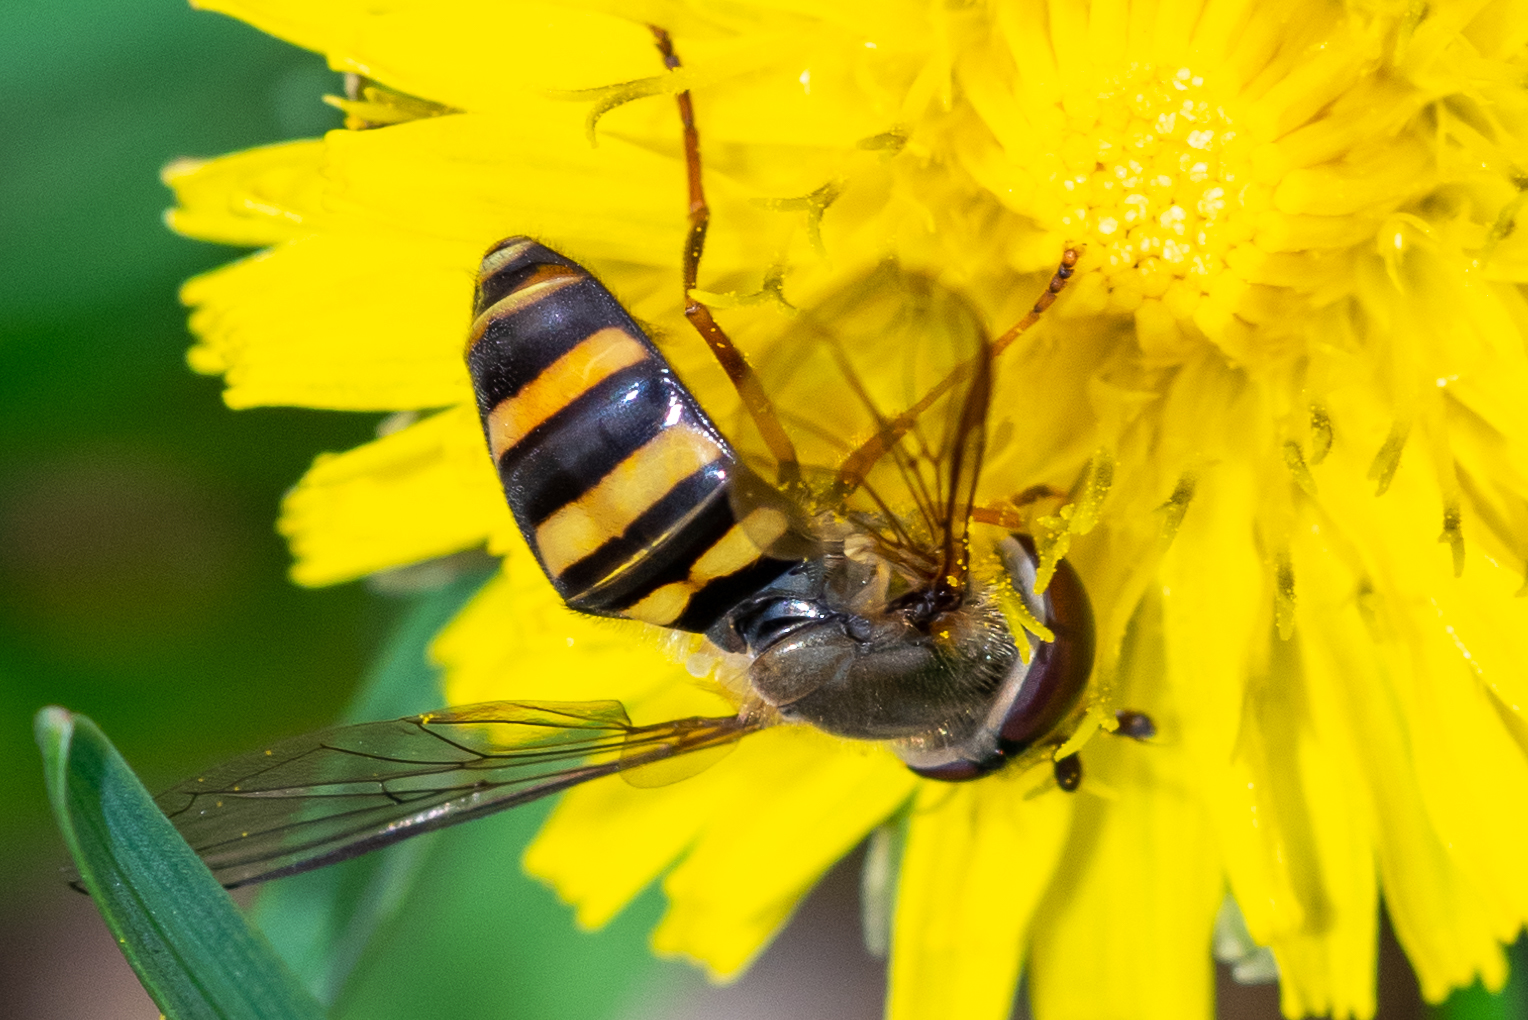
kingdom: Animalia
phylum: Arthropoda
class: Insecta
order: Diptera
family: Syrphidae
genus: Eupeodes
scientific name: Eupeodes
